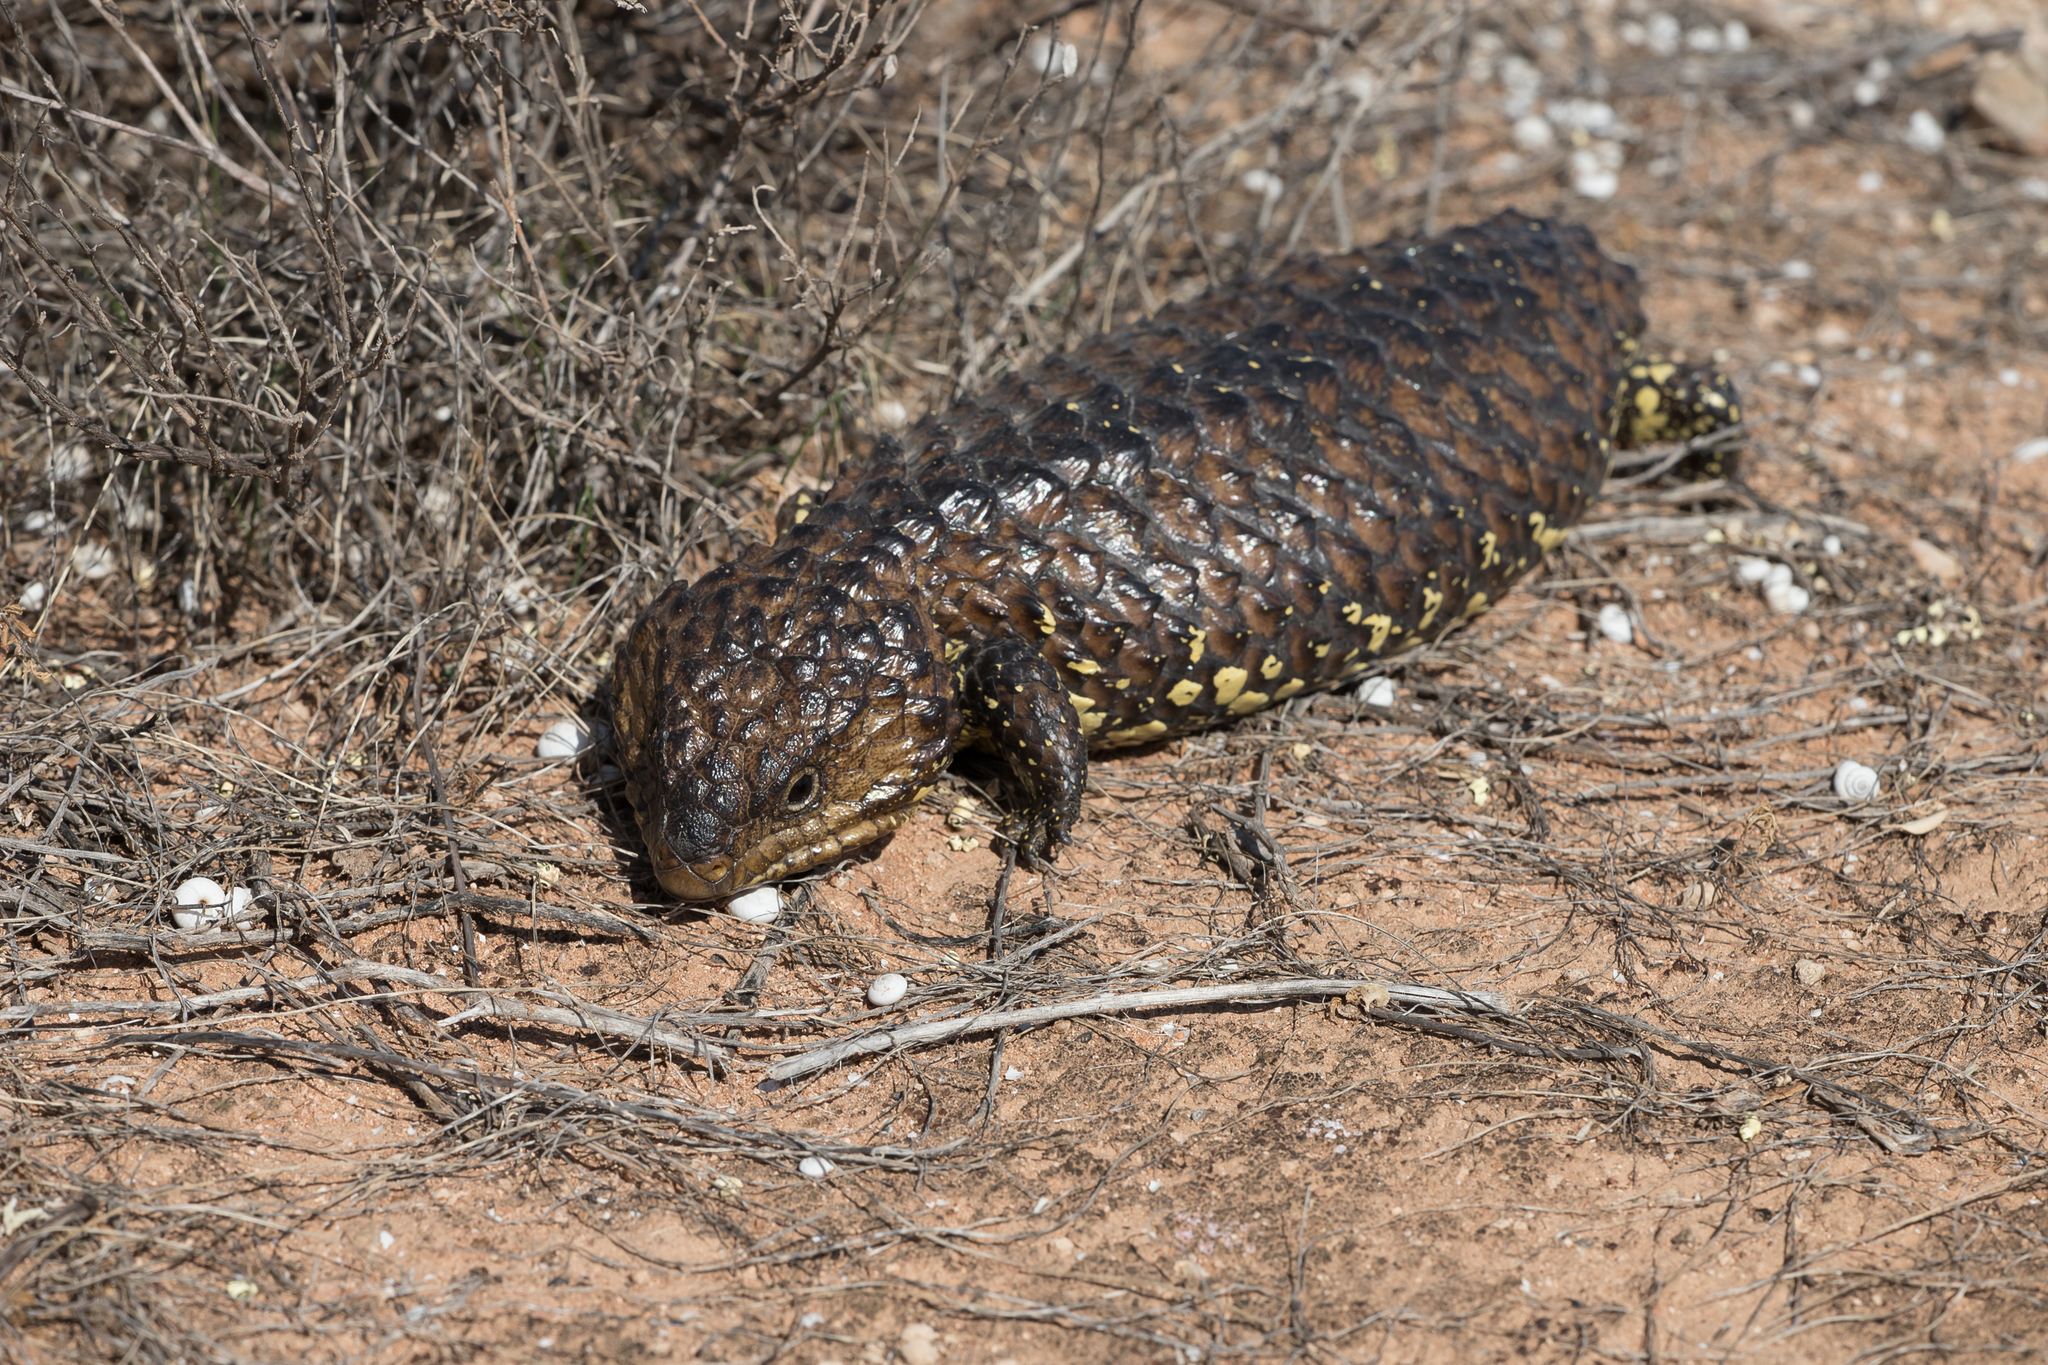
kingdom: Animalia
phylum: Chordata
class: Squamata
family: Scincidae
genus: Tiliqua
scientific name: Tiliqua rugosa
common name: Pinecone lizard
